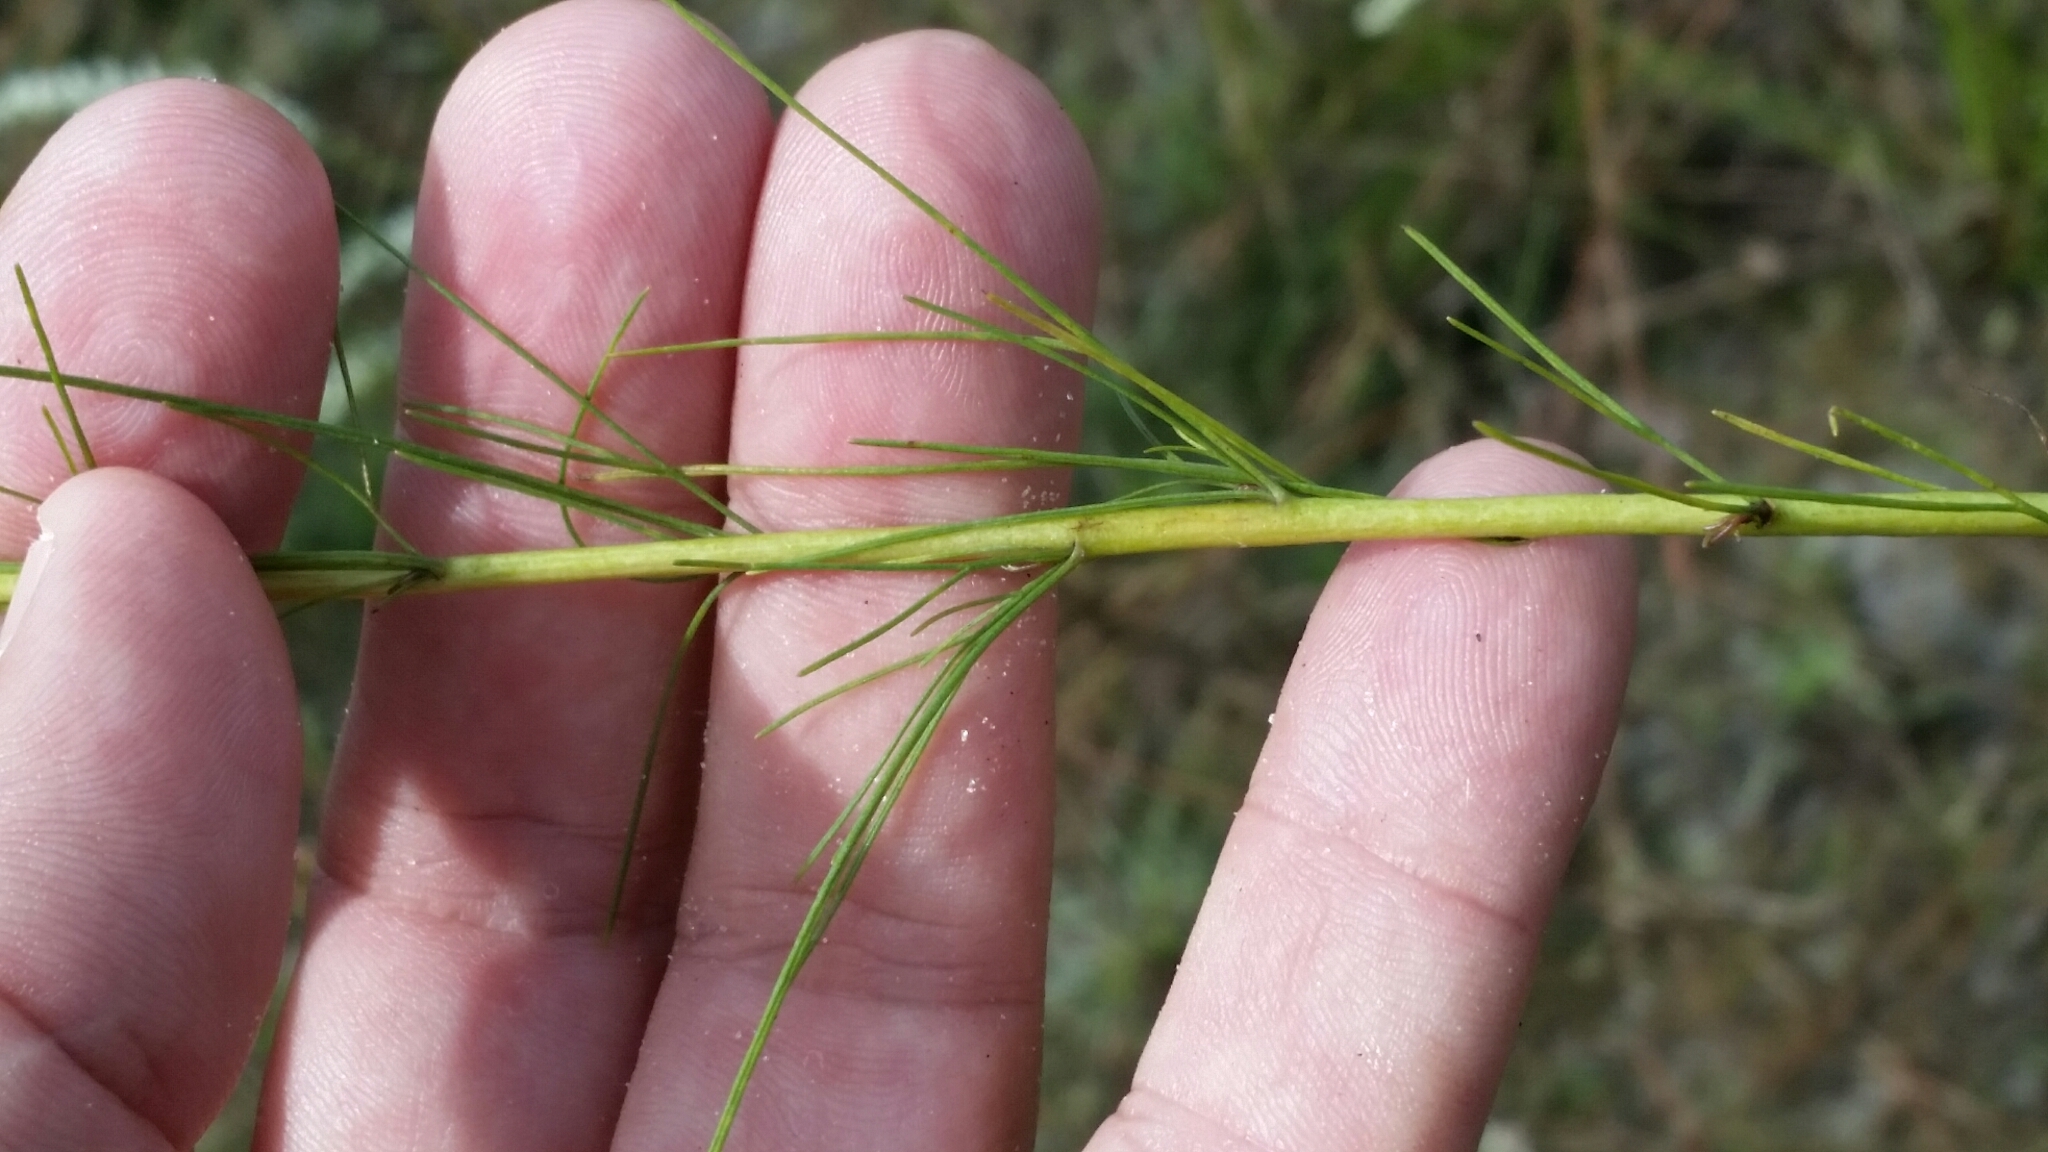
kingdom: Plantae
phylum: Tracheophyta
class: Magnoliopsida
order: Asterales
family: Asteraceae
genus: Eupatorium
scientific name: Eupatorium leptophyllum
